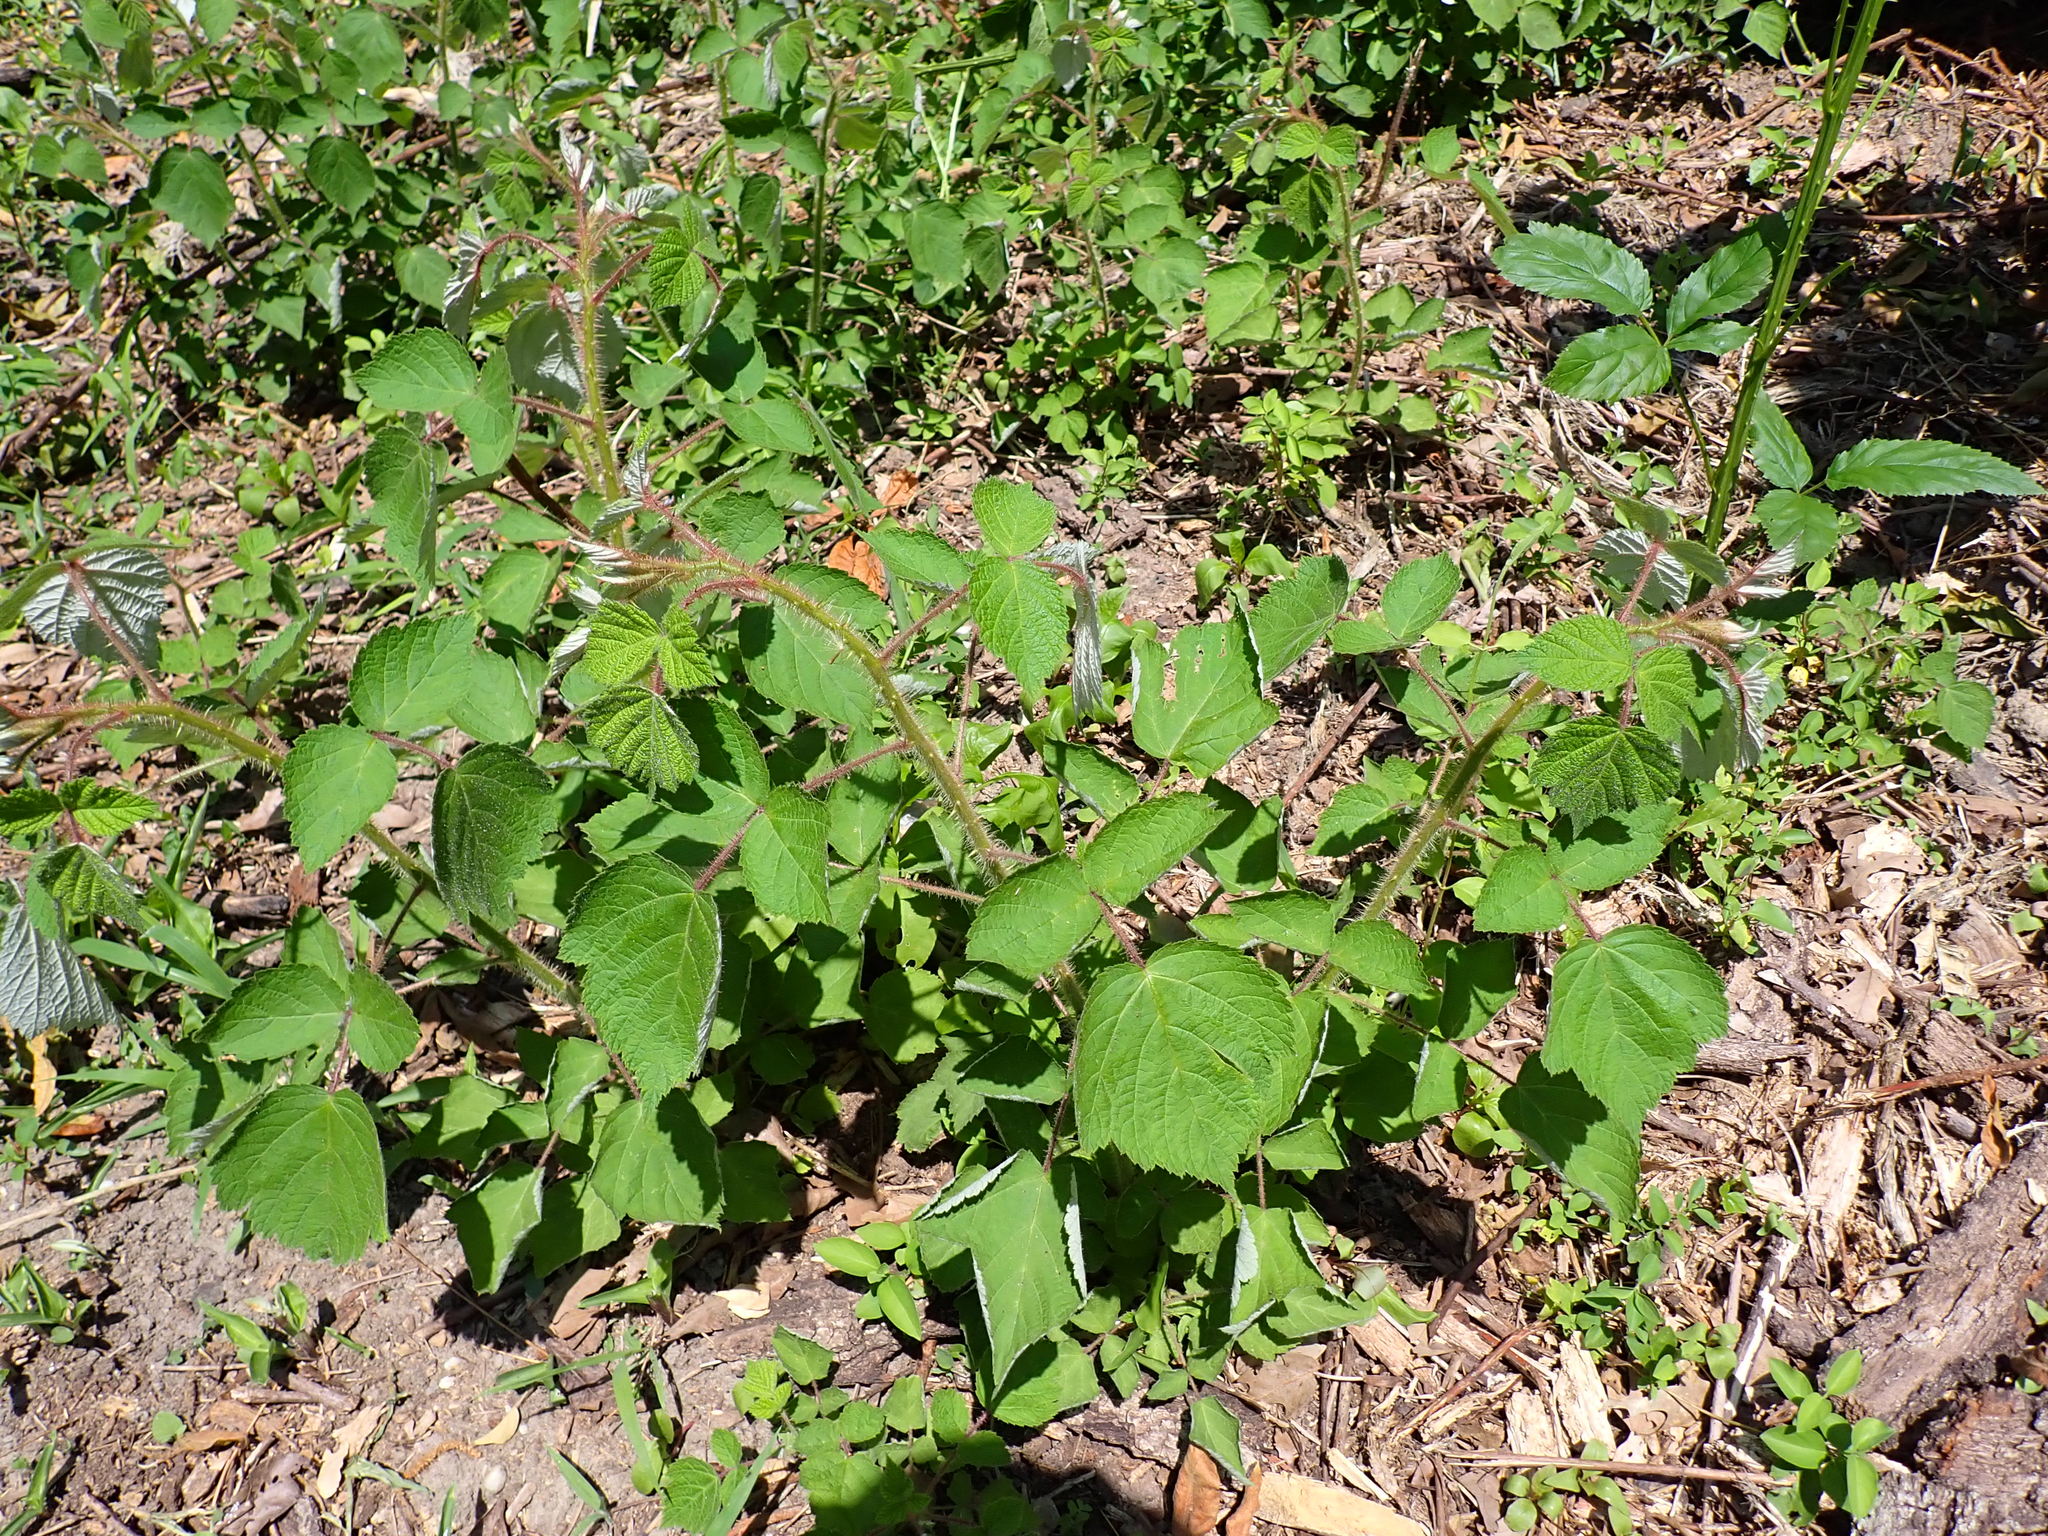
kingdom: Plantae
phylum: Tracheophyta
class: Magnoliopsida
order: Rosales
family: Rosaceae
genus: Rubus
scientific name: Rubus phoenicolasius
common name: Japanese wineberry
